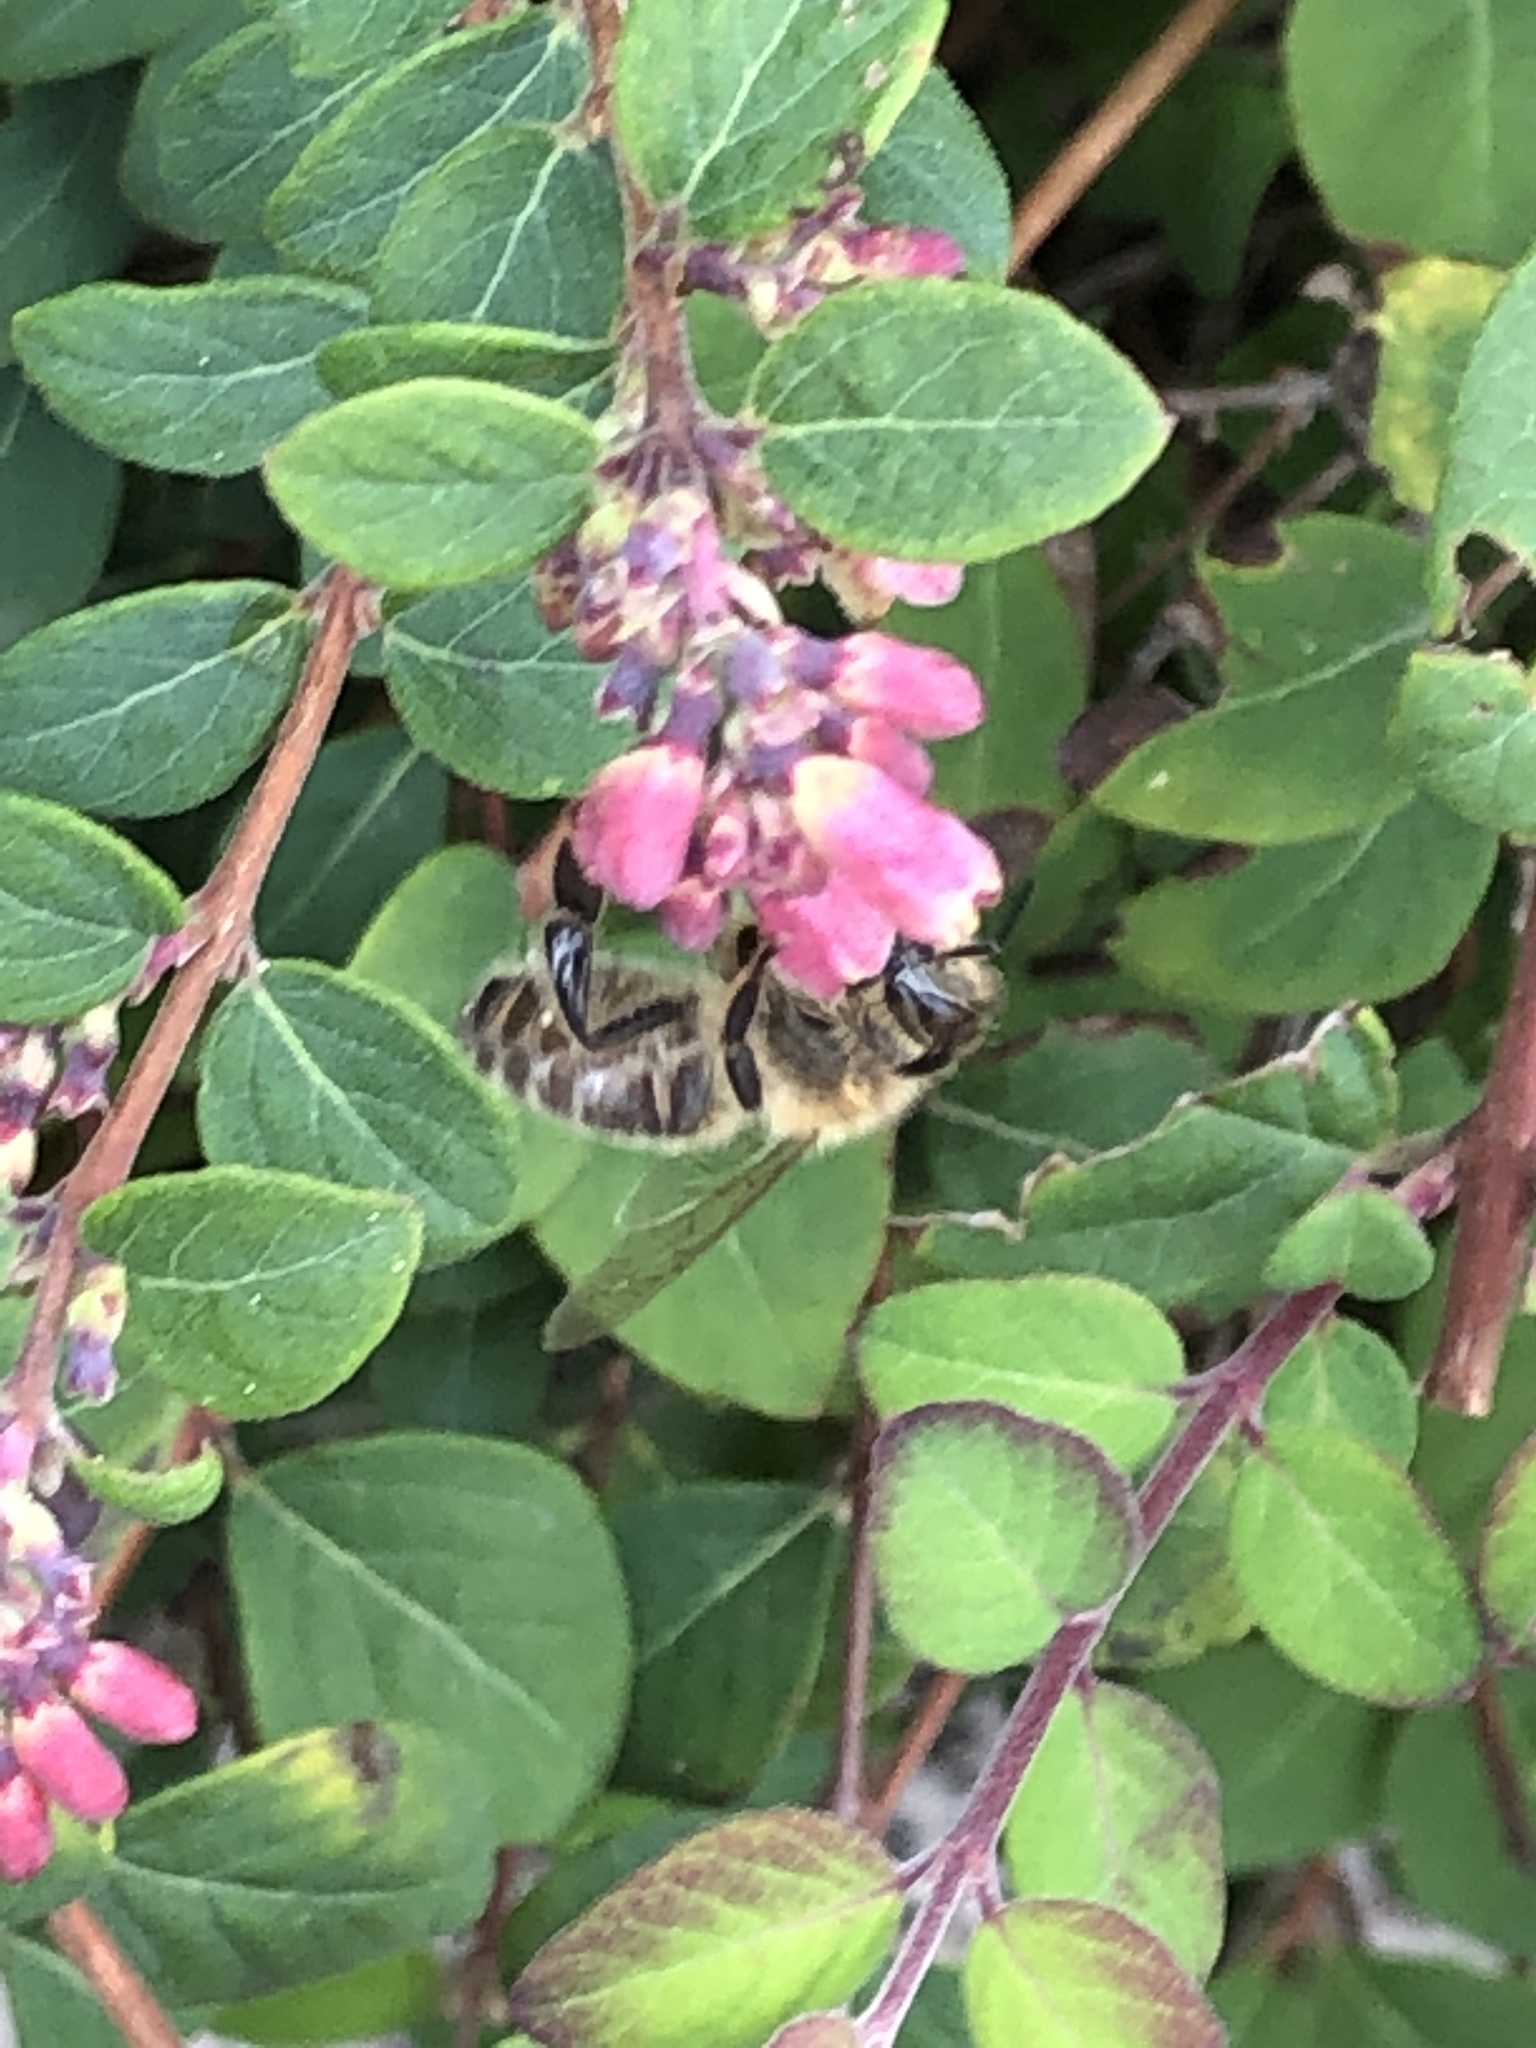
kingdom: Animalia
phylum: Arthropoda
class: Insecta
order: Hymenoptera
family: Apidae
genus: Apis
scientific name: Apis mellifera
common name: Honey bee
